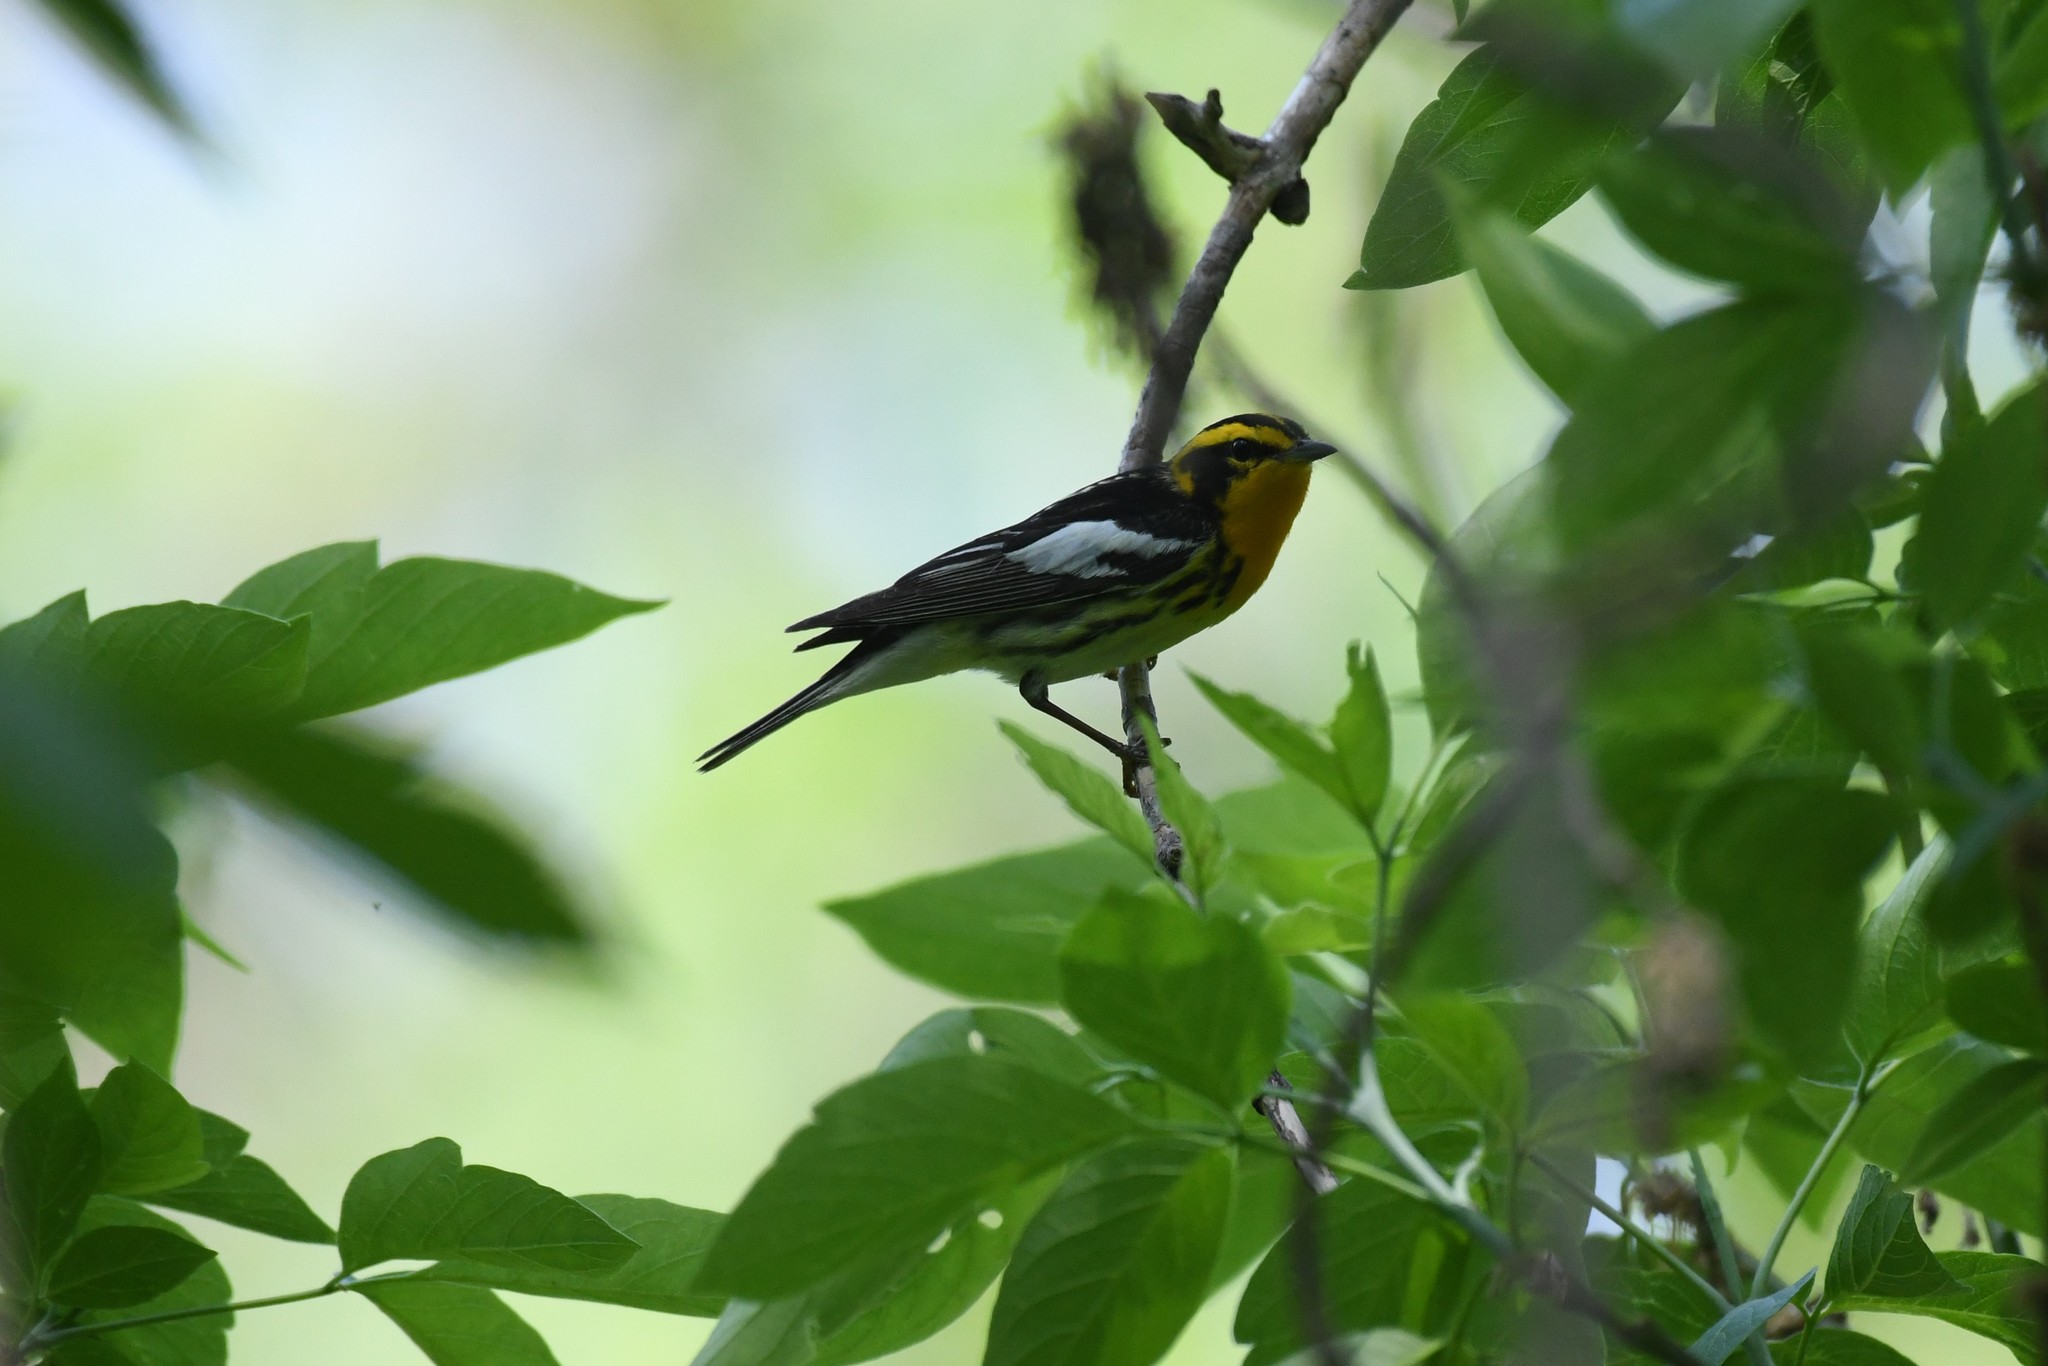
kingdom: Animalia
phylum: Chordata
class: Aves
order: Passeriformes
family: Parulidae
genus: Setophaga
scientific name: Setophaga fusca
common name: Blackburnian warbler
